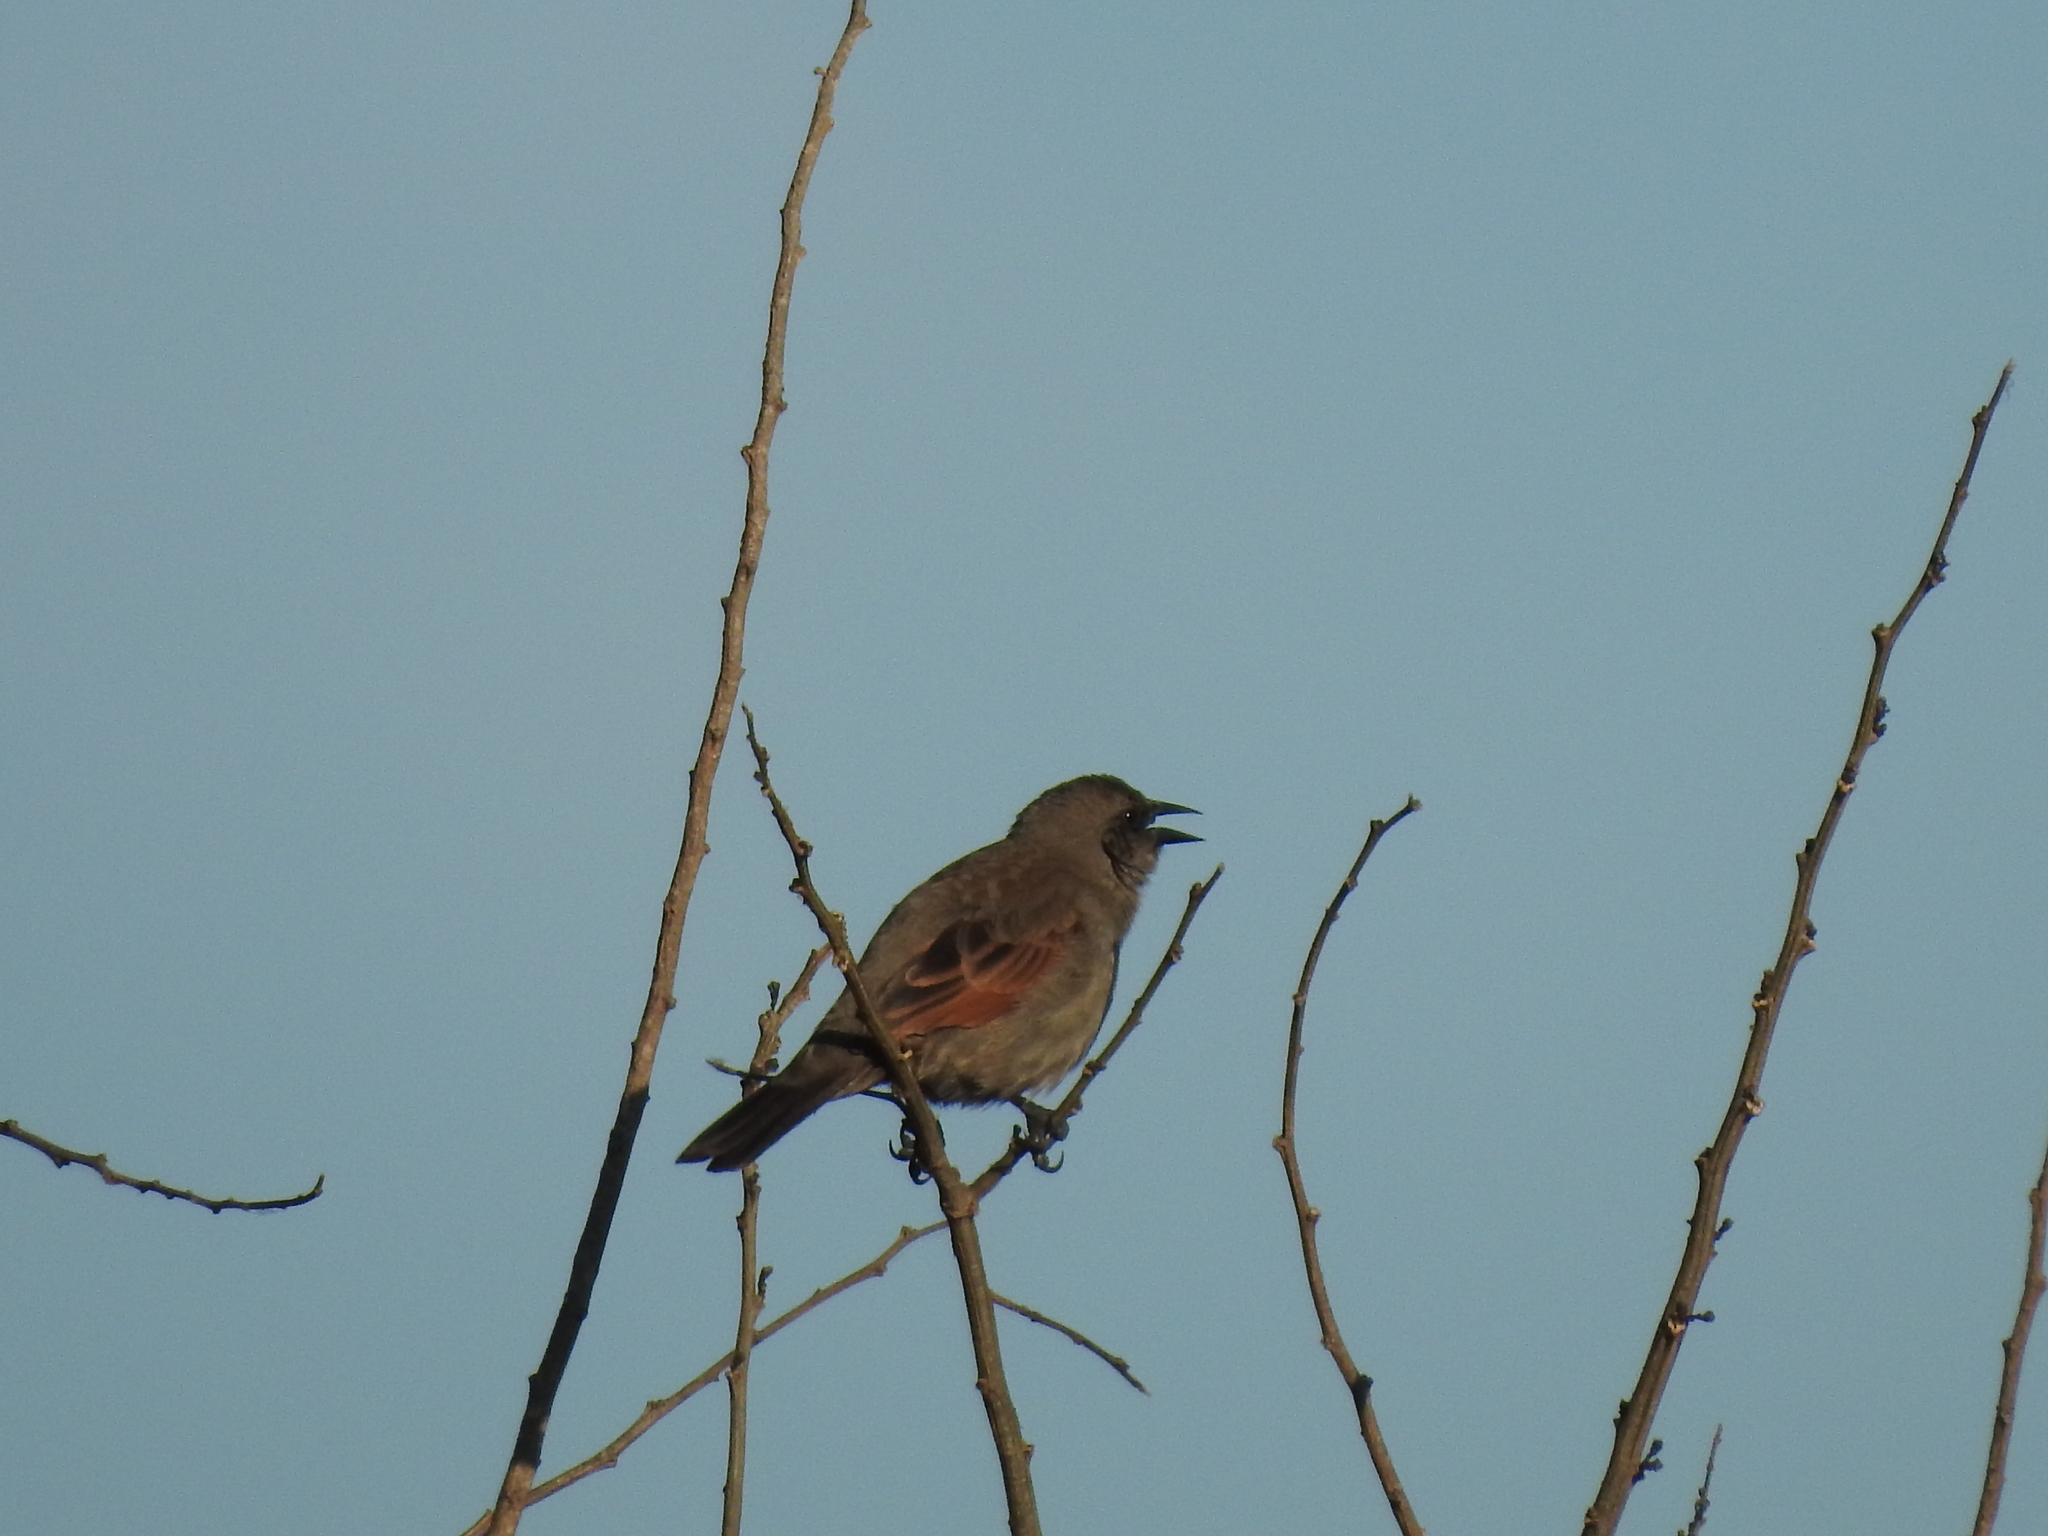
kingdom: Animalia
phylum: Chordata
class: Aves
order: Passeriformes
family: Icteridae
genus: Agelaioides
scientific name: Agelaioides badius
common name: Baywing
